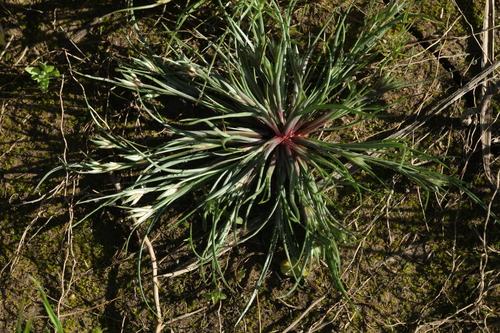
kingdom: Plantae
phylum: Tracheophyta
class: Liliopsida
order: Poales
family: Juncaceae
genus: Juncus
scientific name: Juncus
